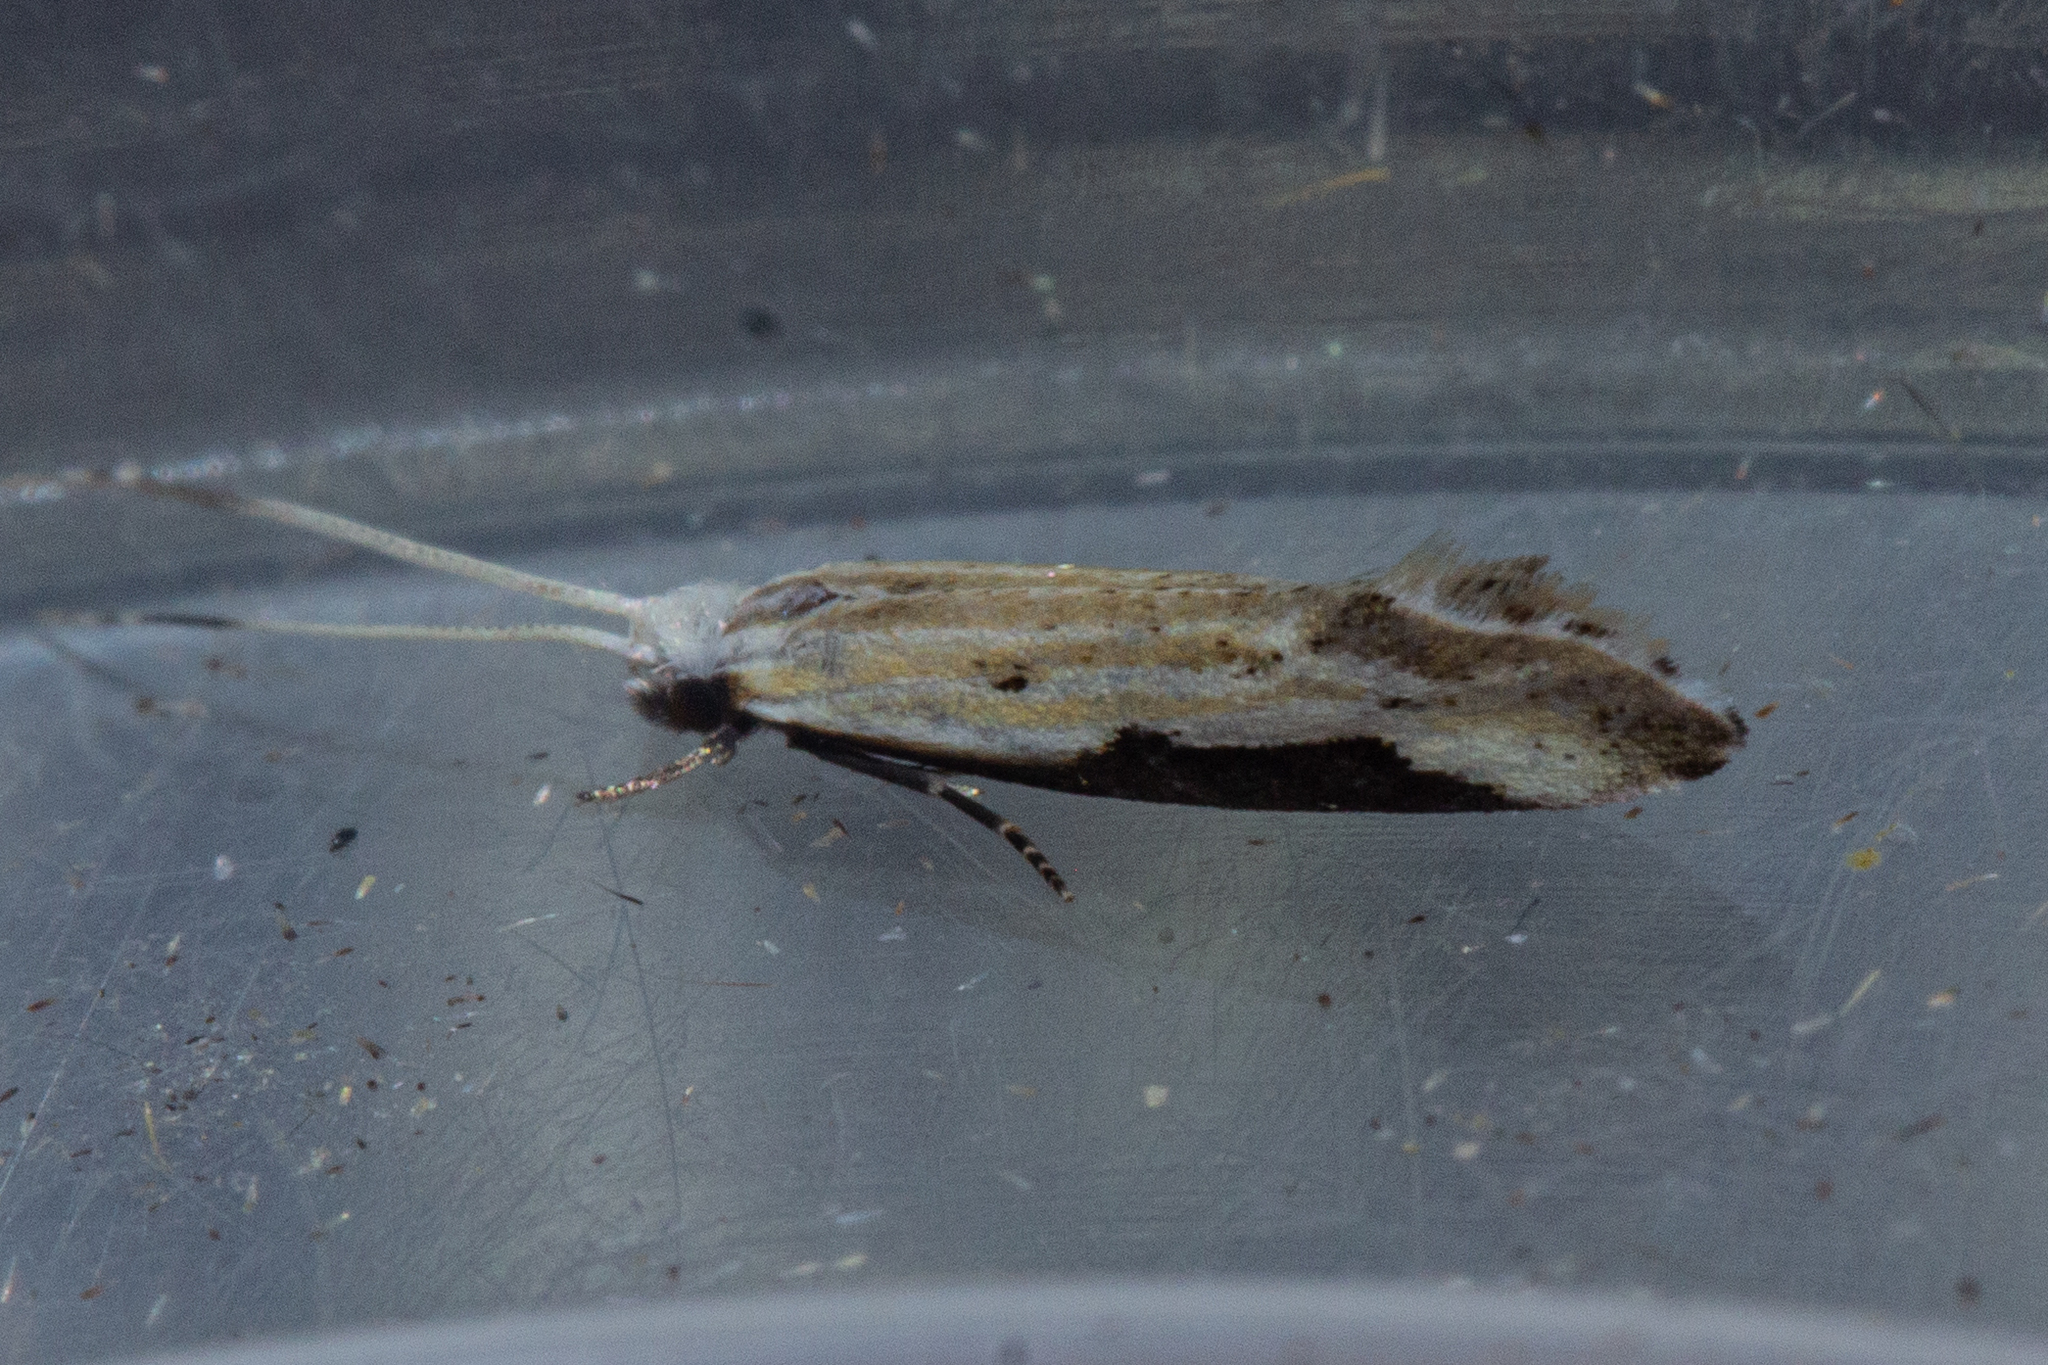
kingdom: Animalia
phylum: Arthropoda
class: Insecta
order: Lepidoptera
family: Tineidae
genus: Sagephora
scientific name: Sagephora phortegella
